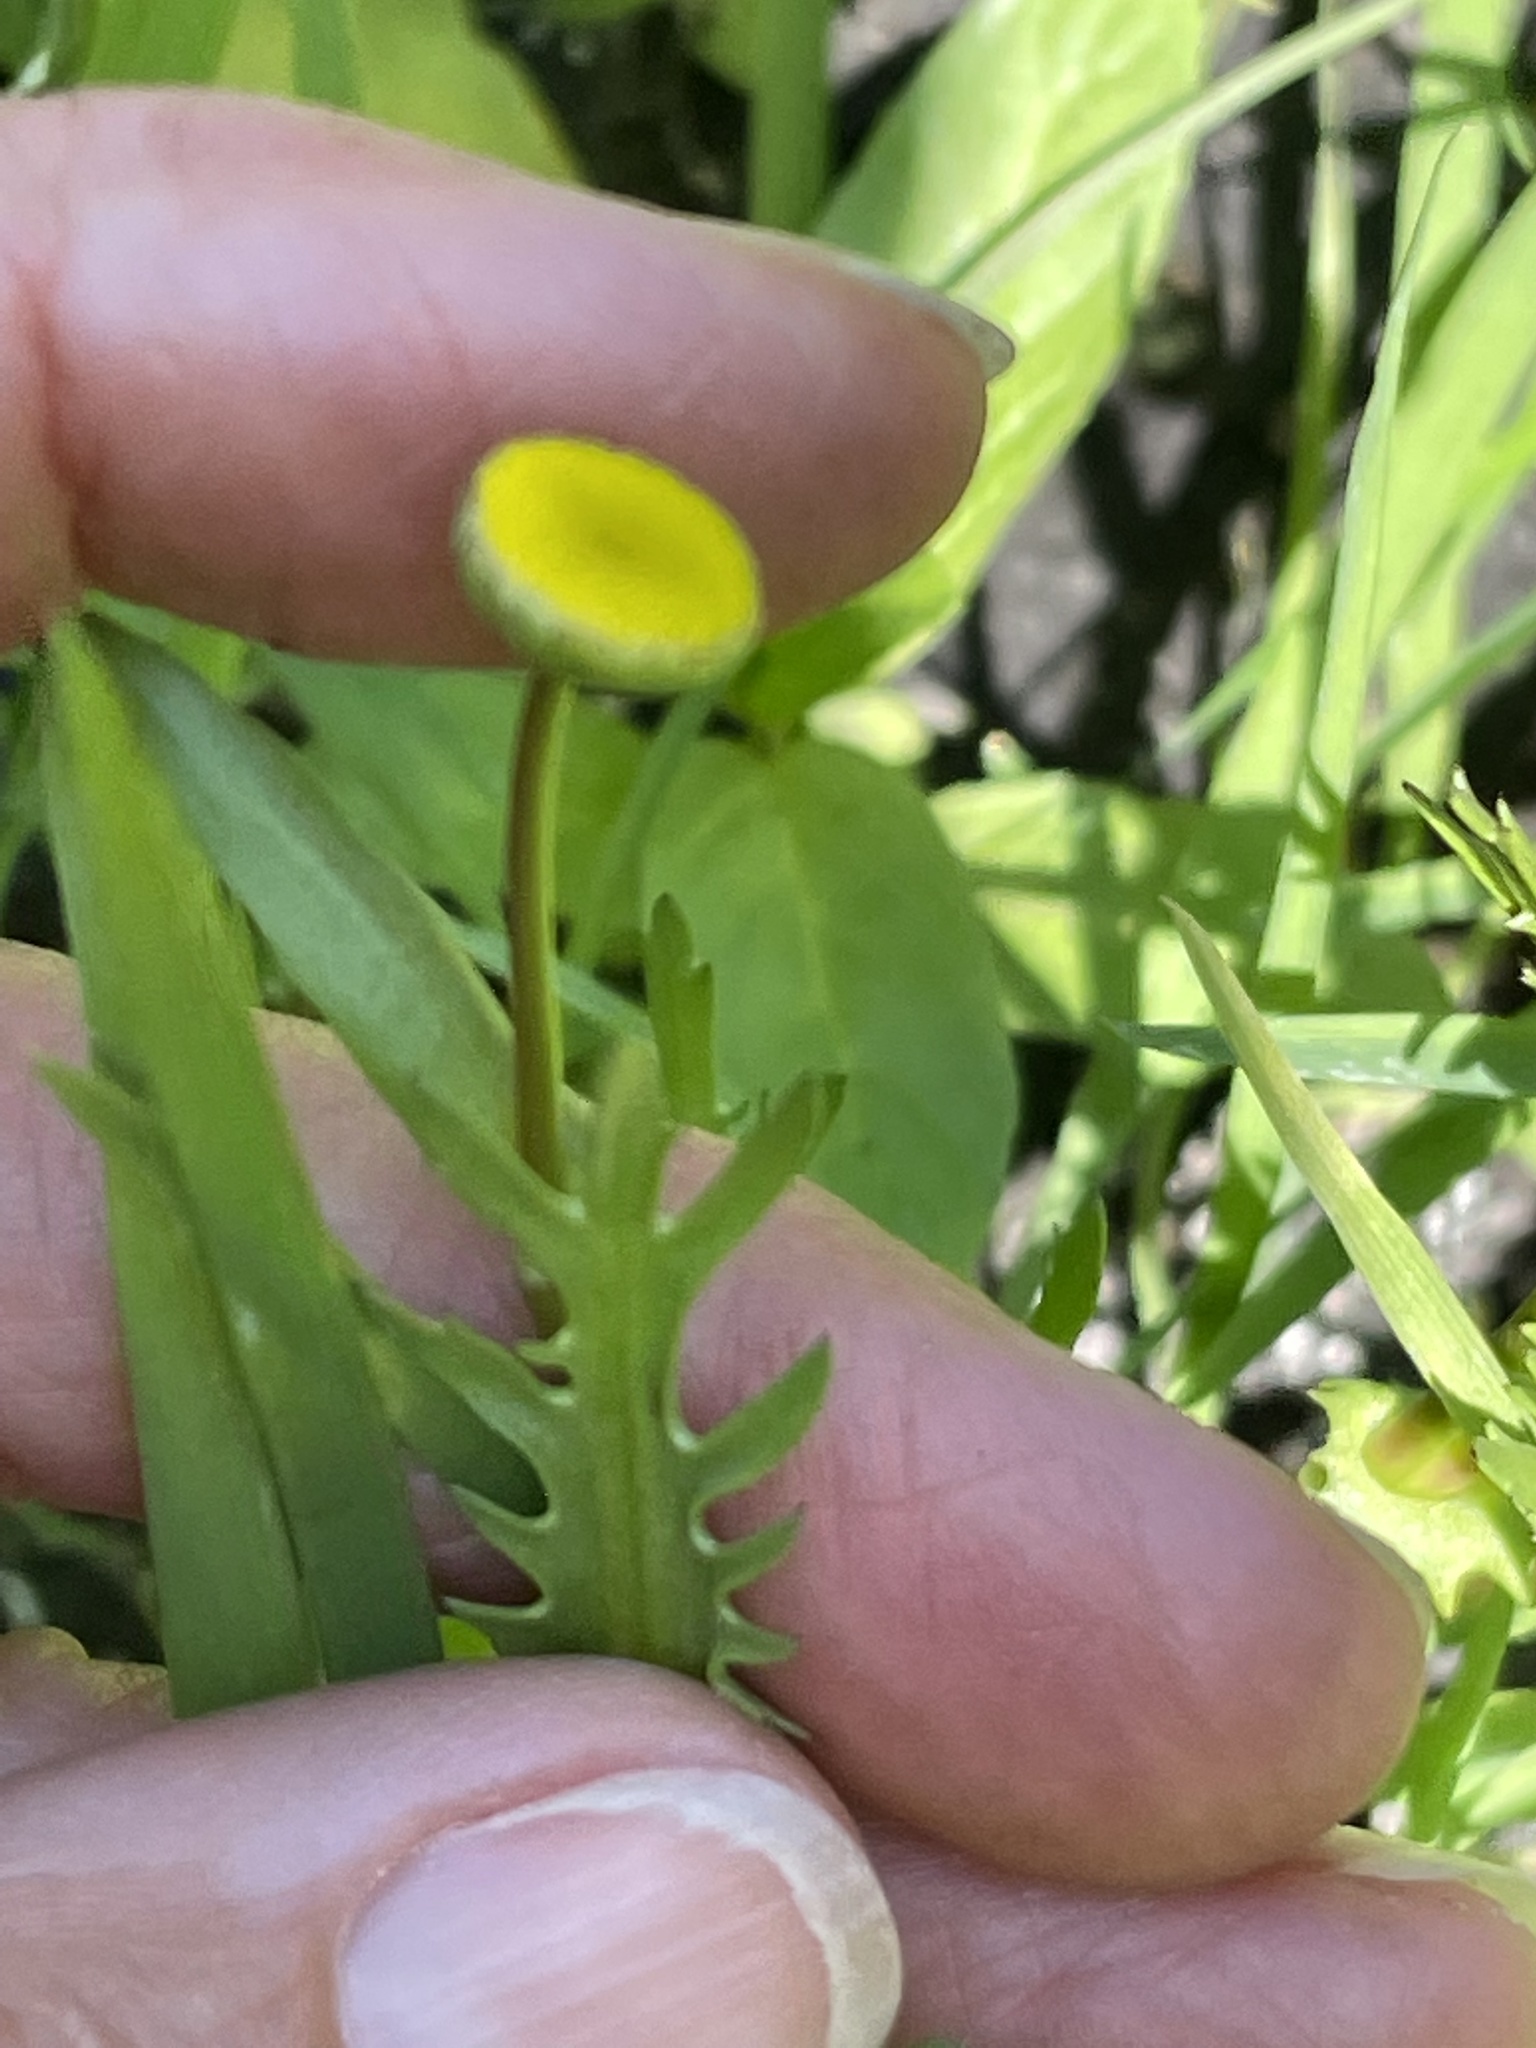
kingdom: Plantae
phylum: Tracheophyta
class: Magnoliopsida
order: Asterales
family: Asteraceae
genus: Cotula
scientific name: Cotula coronopifolia
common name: Buttonweed
